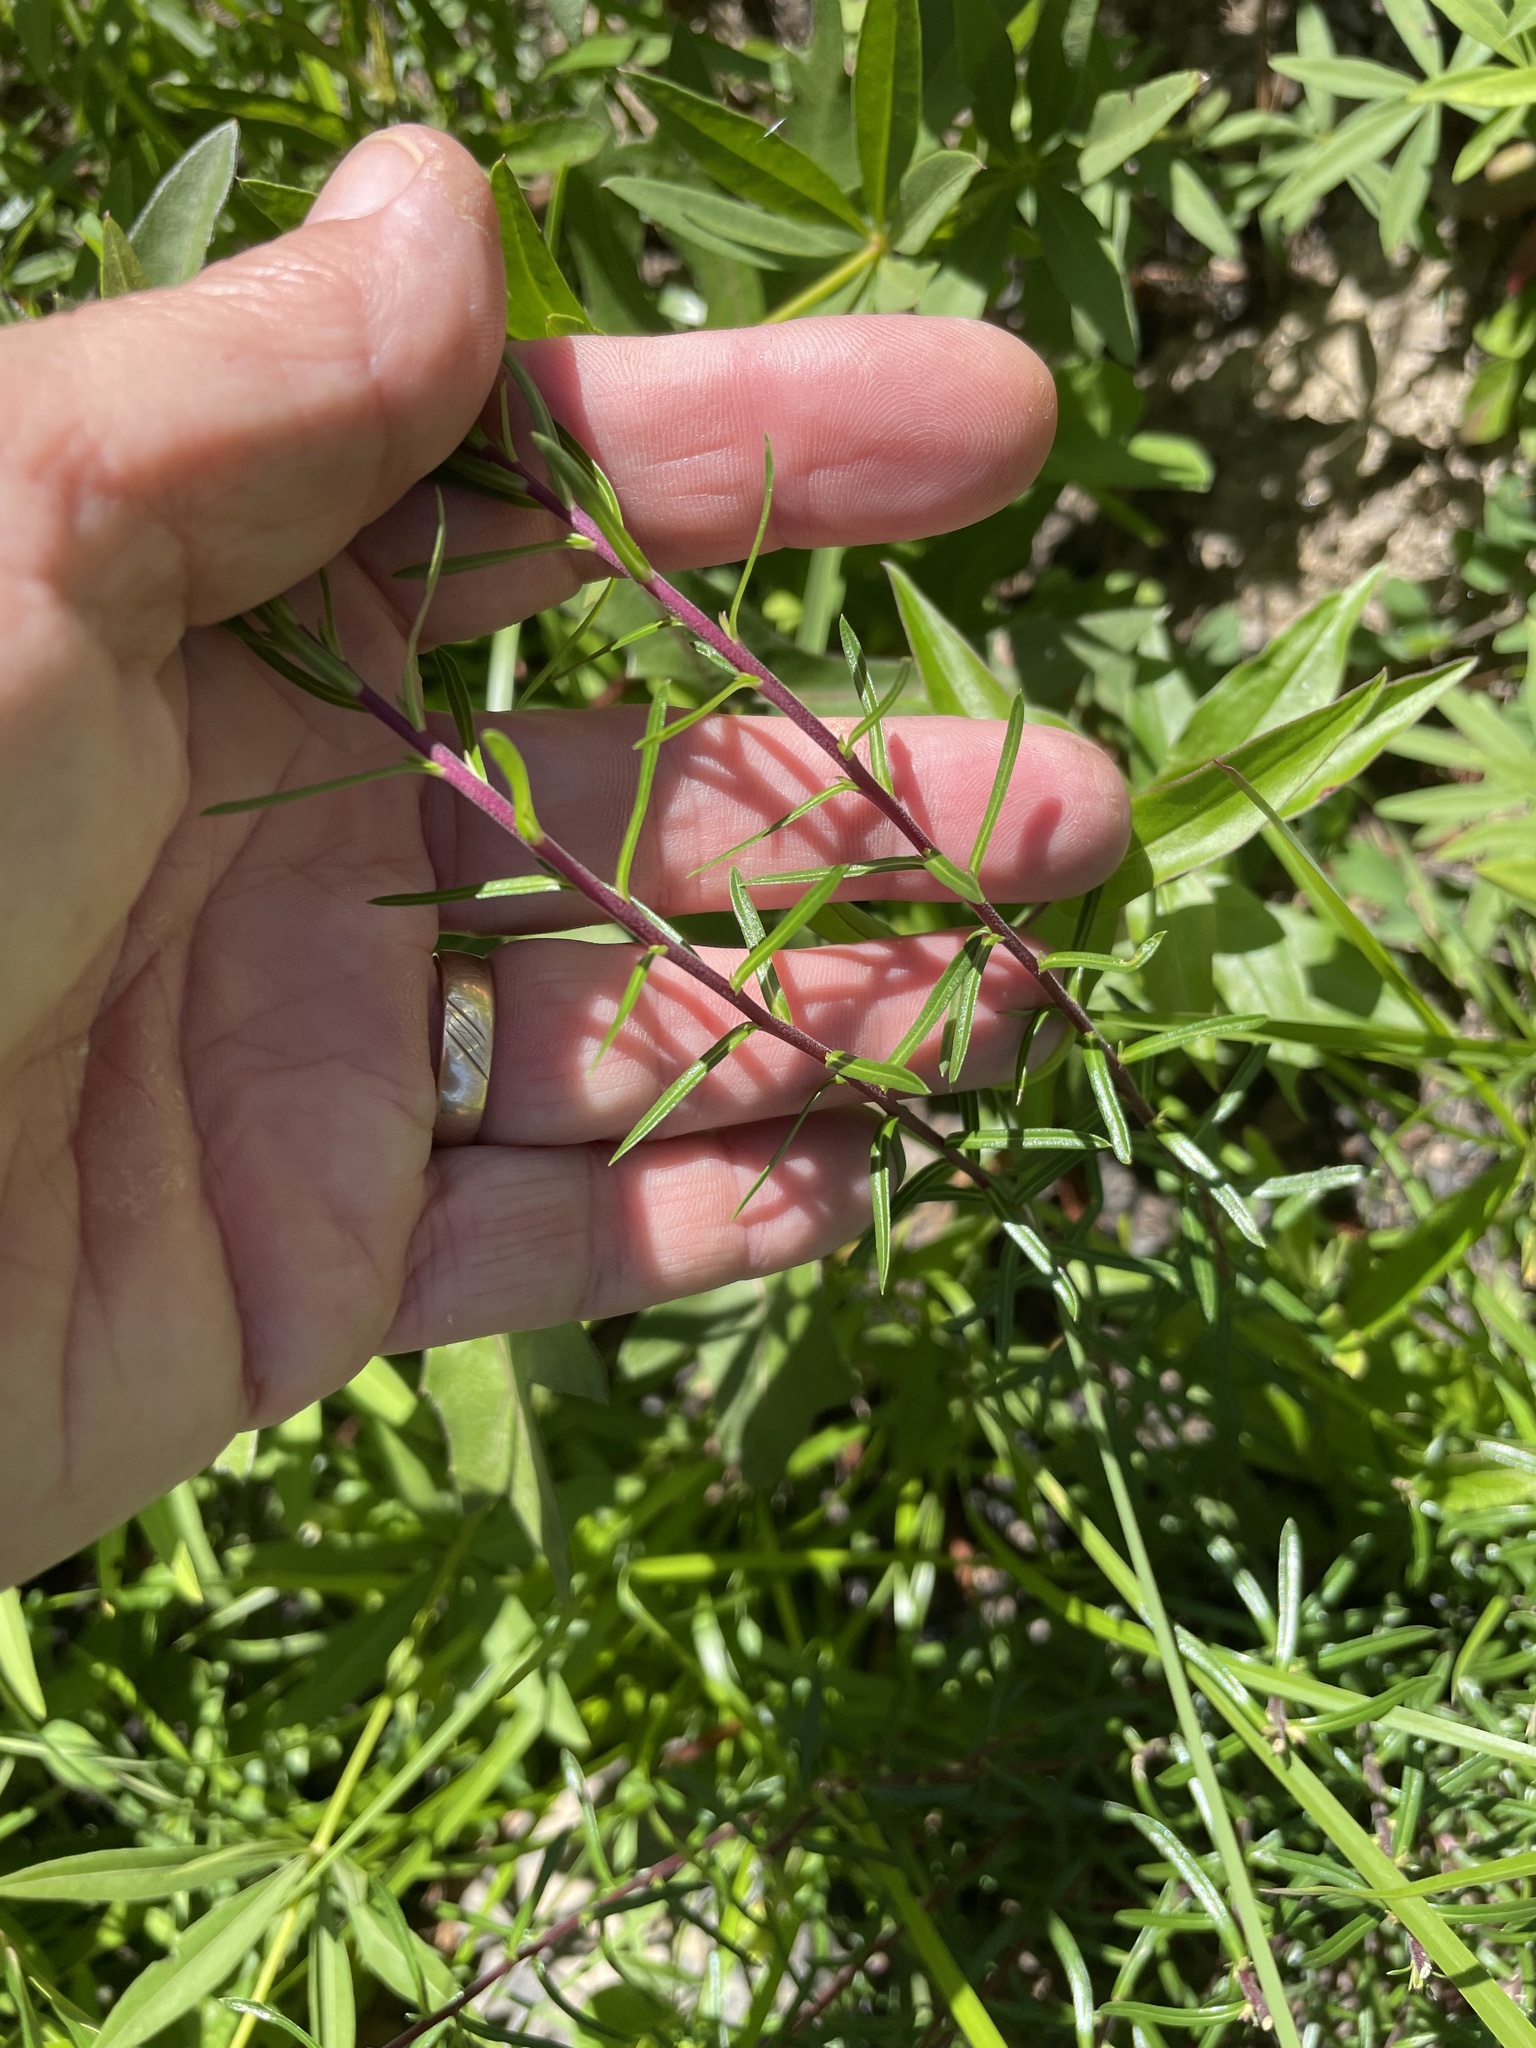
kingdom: Plantae
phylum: Tracheophyta
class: Magnoliopsida
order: Asterales
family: Asteraceae
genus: Ionactis
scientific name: Ionactis linariifolia
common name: Flax-leaf aster
